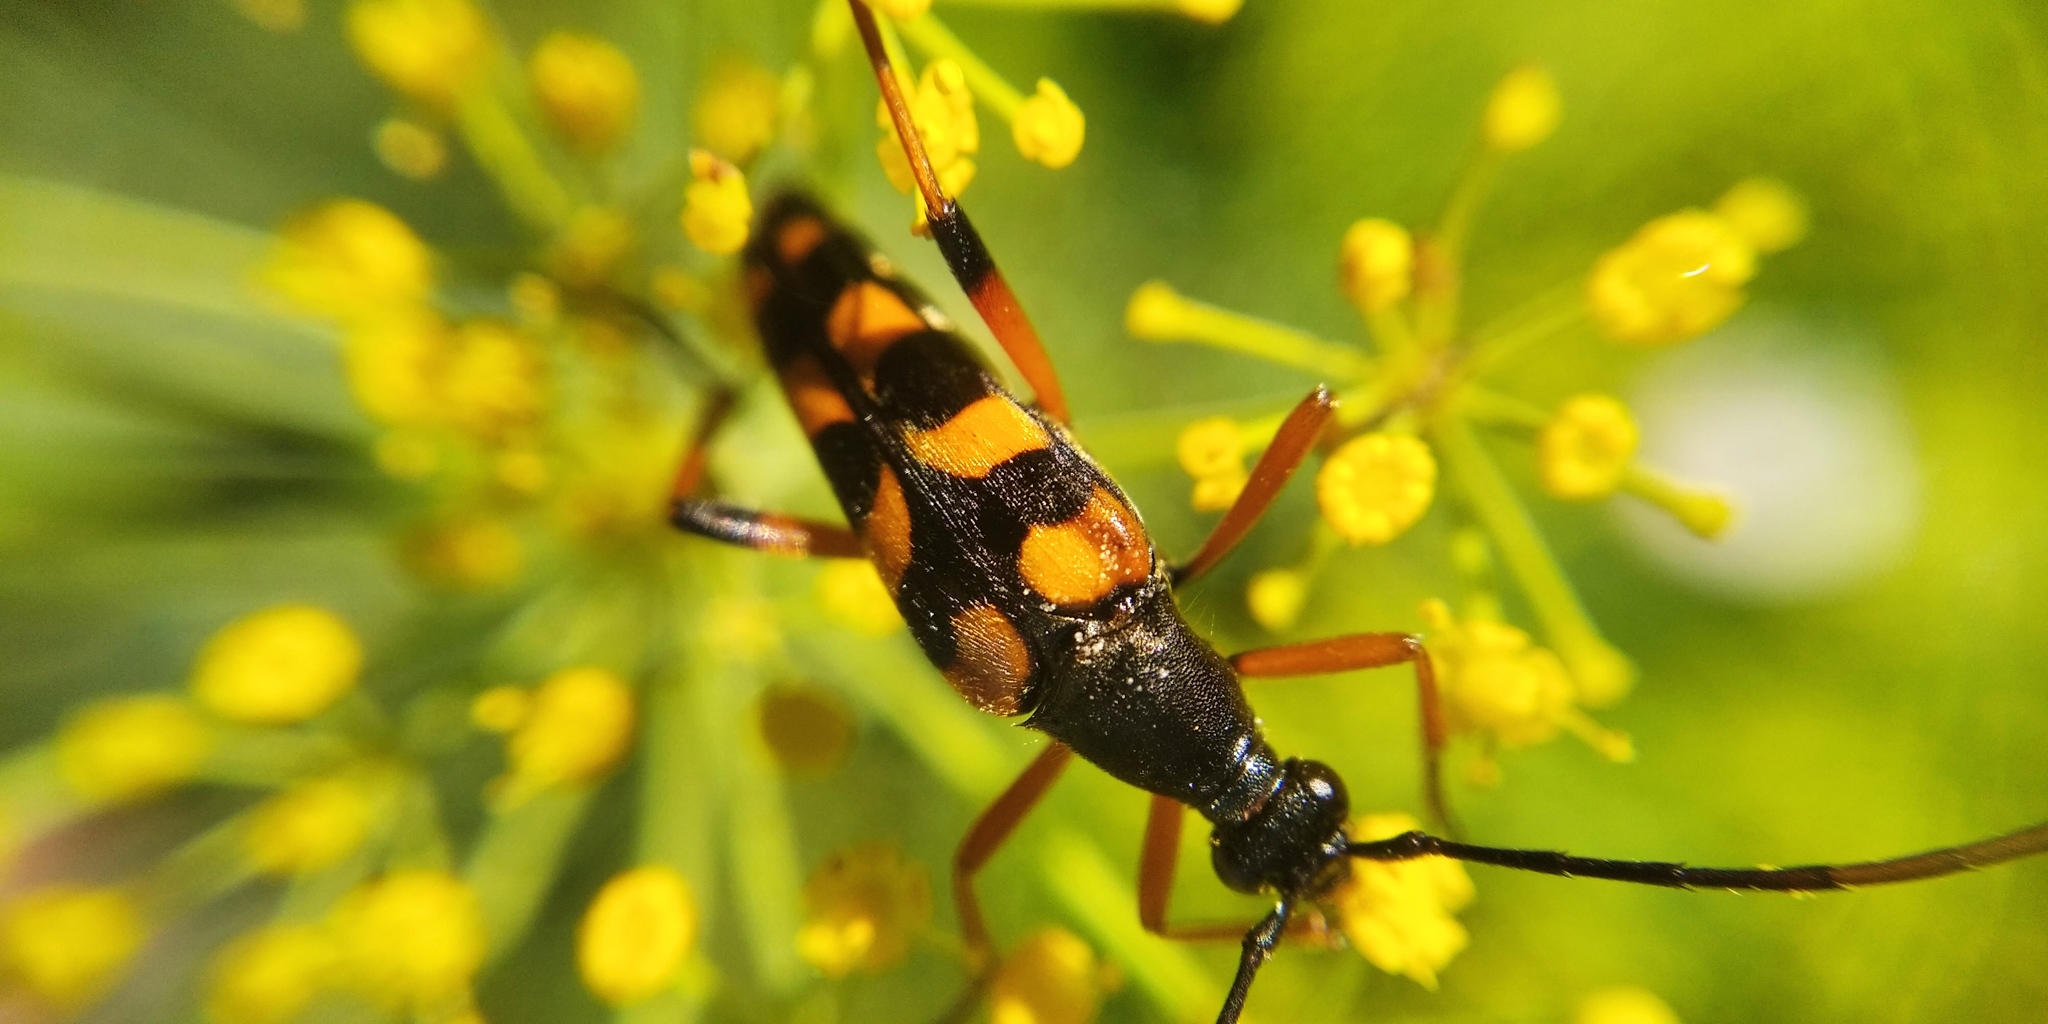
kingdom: Animalia
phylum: Arthropoda
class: Insecta
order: Coleoptera
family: Cerambycidae
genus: Strangalia
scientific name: Strangalia attenuata
